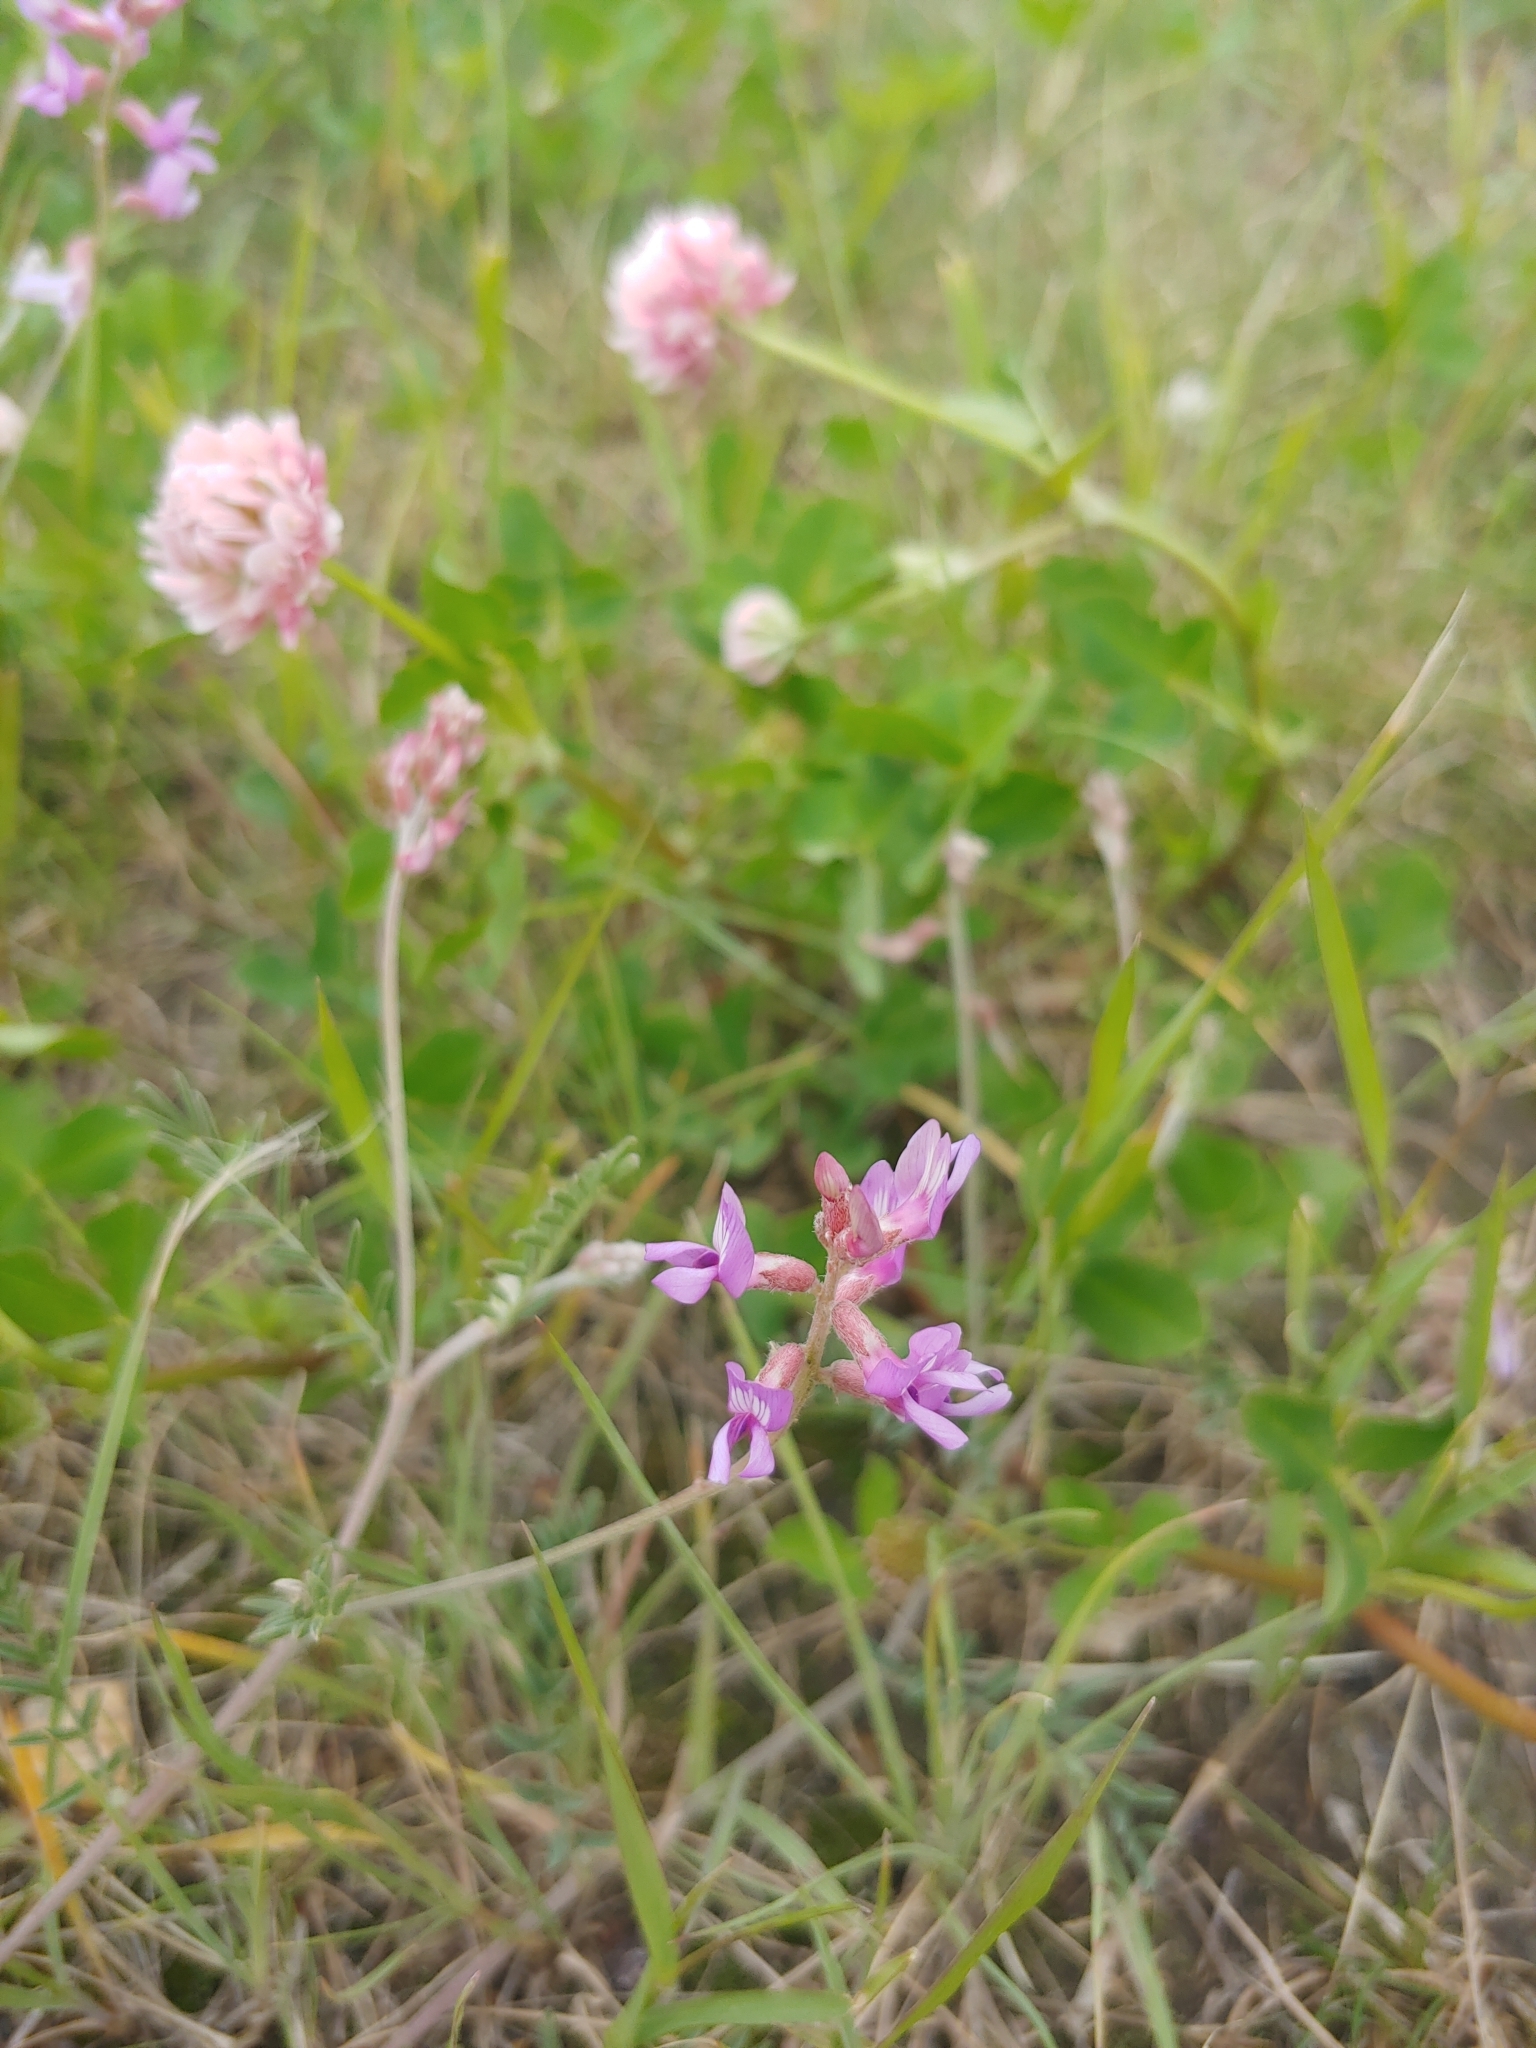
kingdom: Plantae
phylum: Tracheophyta
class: Magnoliopsida
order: Fabales
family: Fabaceae
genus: Astragalus
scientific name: Astragalus flexuosus
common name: Pliant milk-vetch
